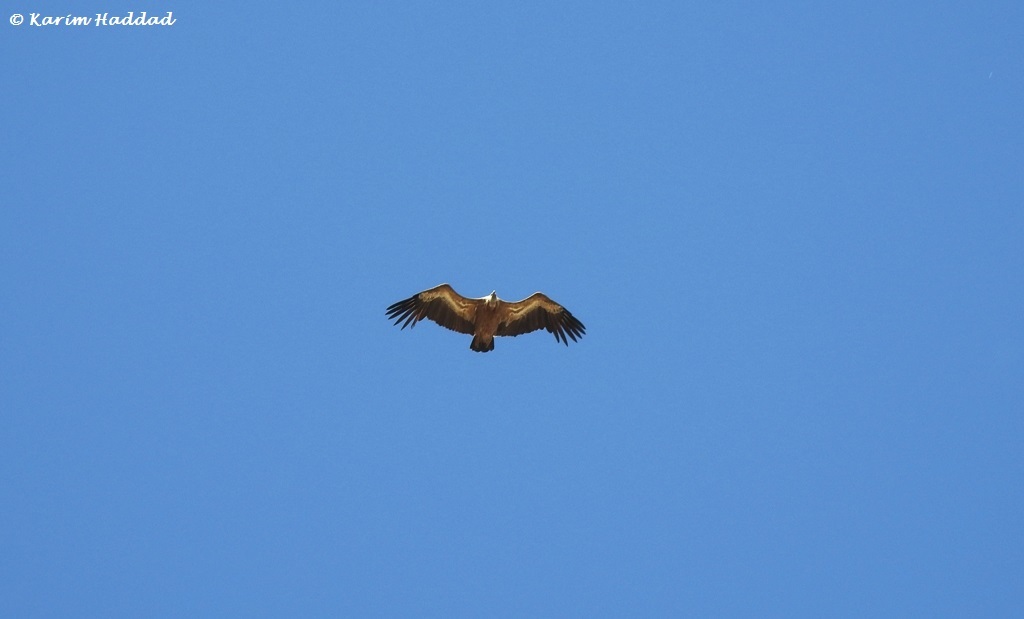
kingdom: Animalia
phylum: Chordata
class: Aves
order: Accipitriformes
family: Accipitridae
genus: Gyps
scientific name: Gyps fulvus
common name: Griffon vulture
